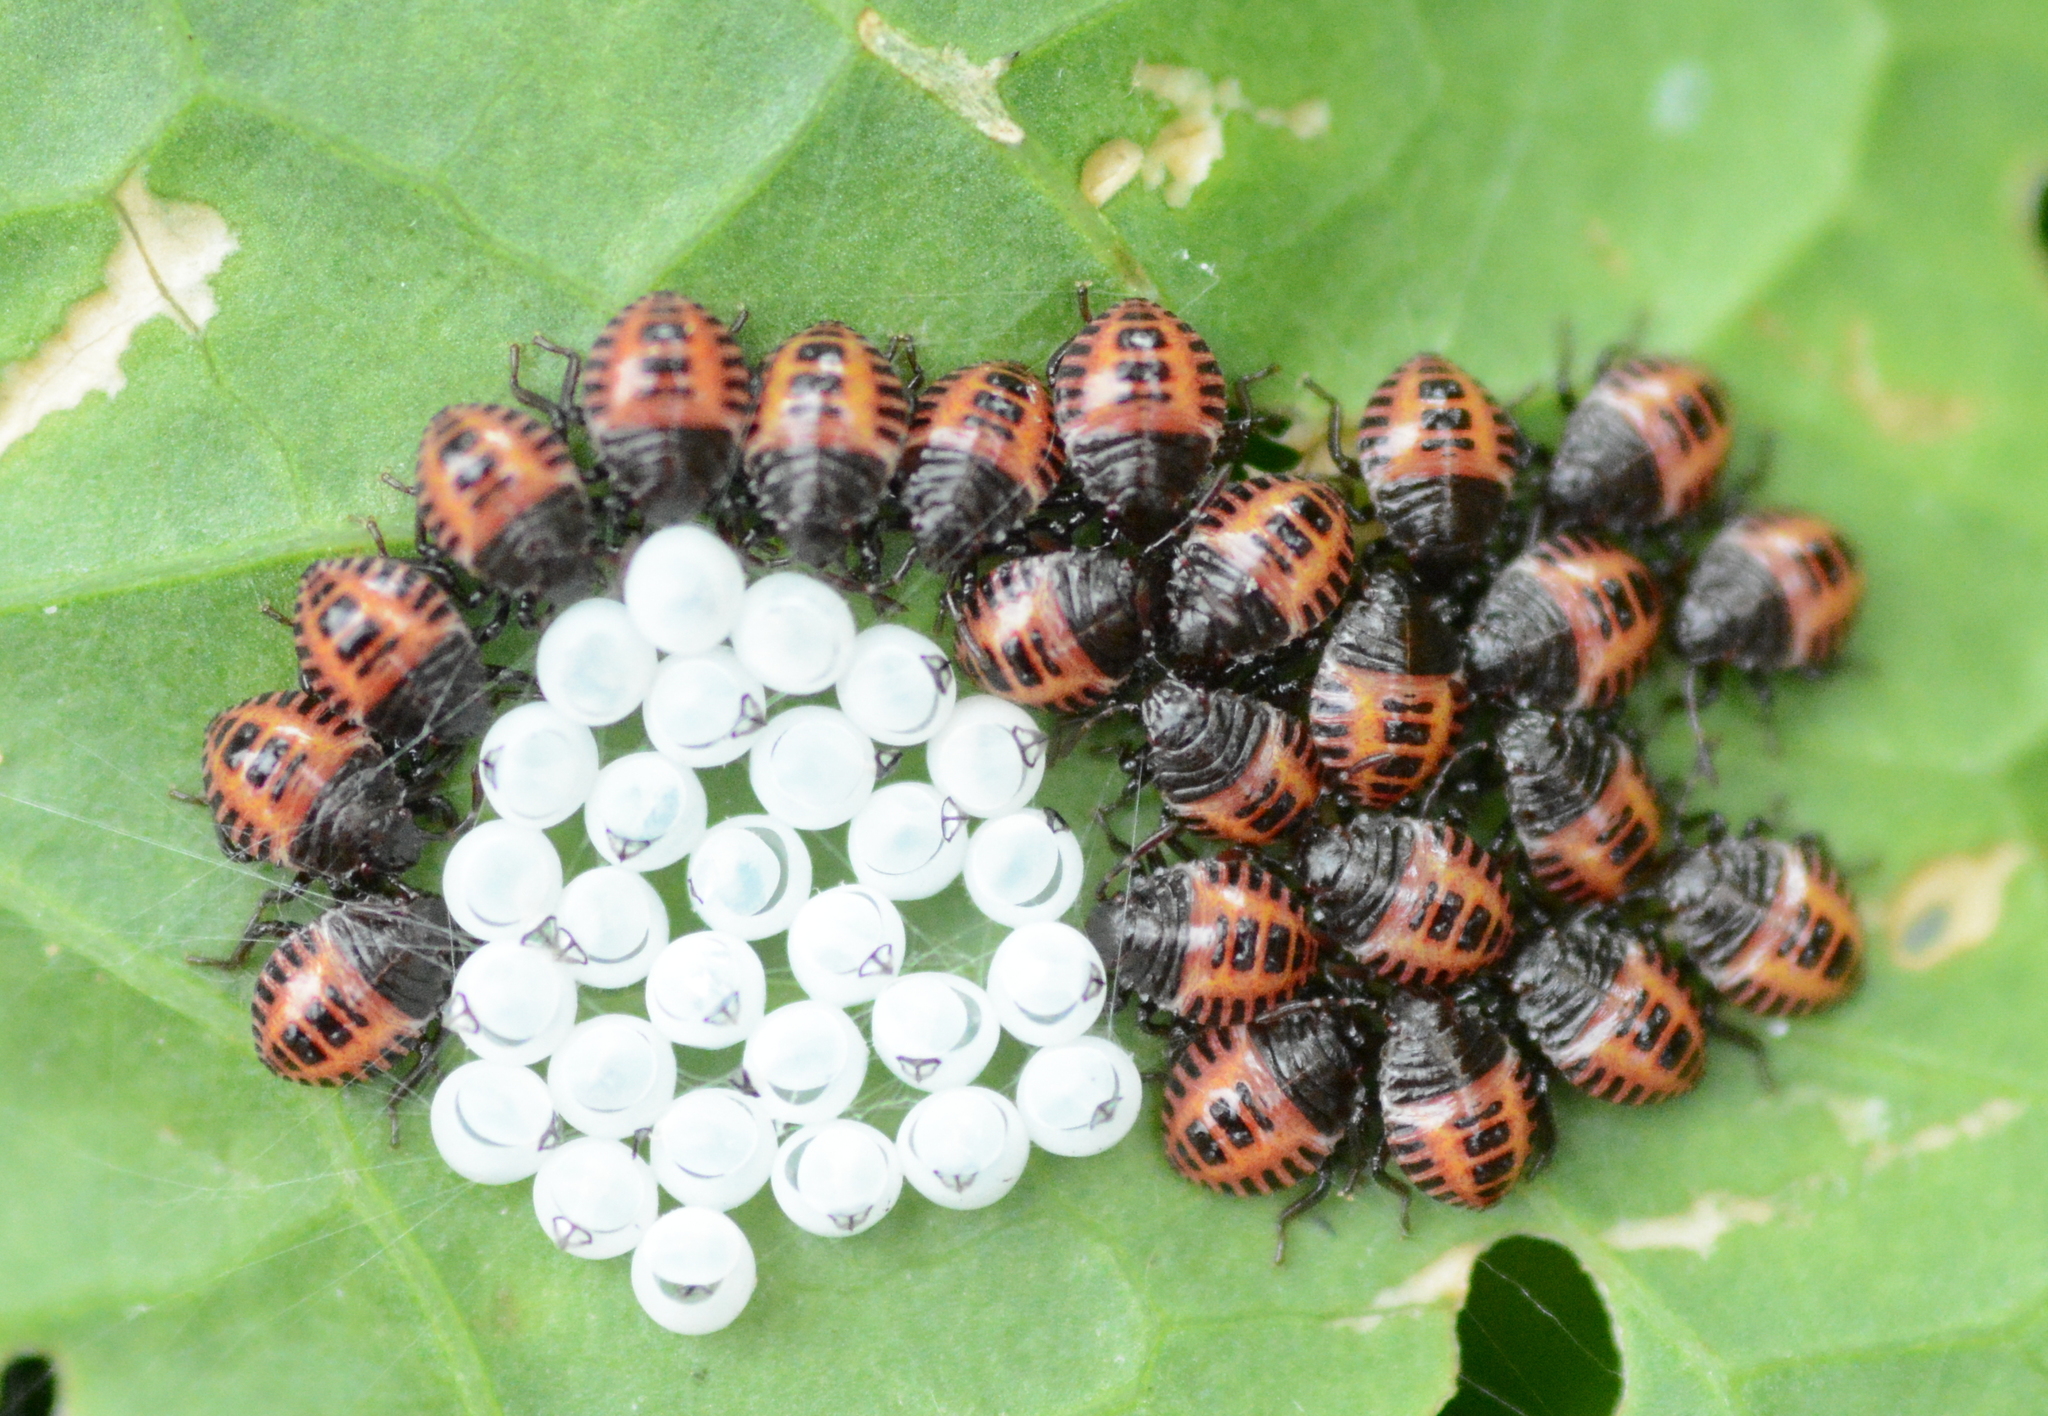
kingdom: Animalia
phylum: Arthropoda
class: Insecta
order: Hemiptera
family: Pentatomidae
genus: Halyomorpha
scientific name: Halyomorpha halys
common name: Brown marmorated stink bug
